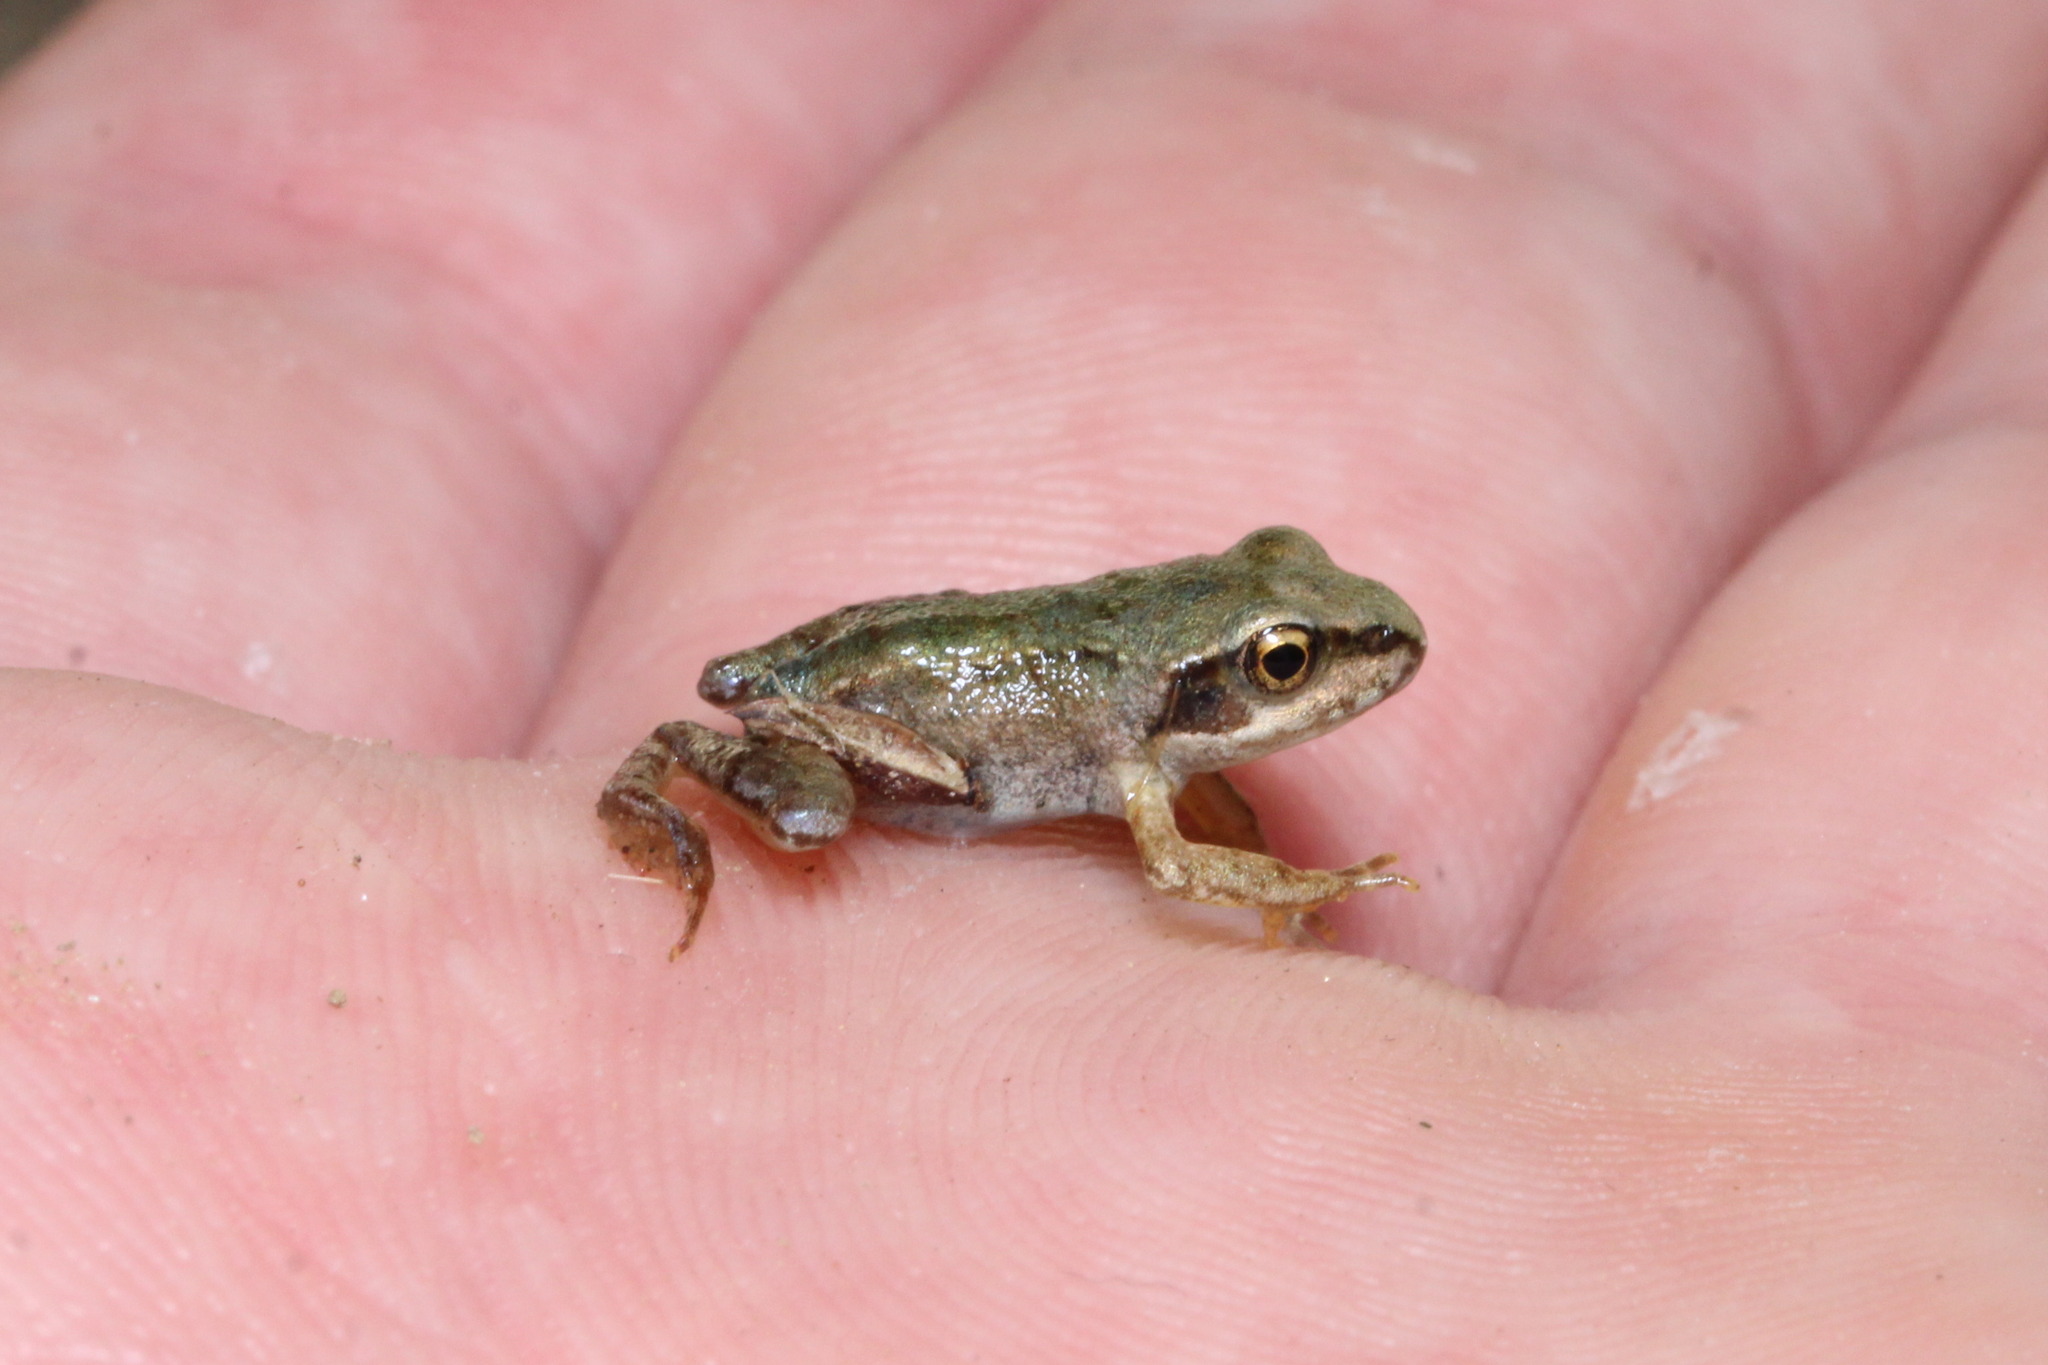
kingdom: Animalia
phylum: Chordata
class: Amphibia
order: Anura
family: Ranidae
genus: Pelophylax
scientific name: Pelophylax
